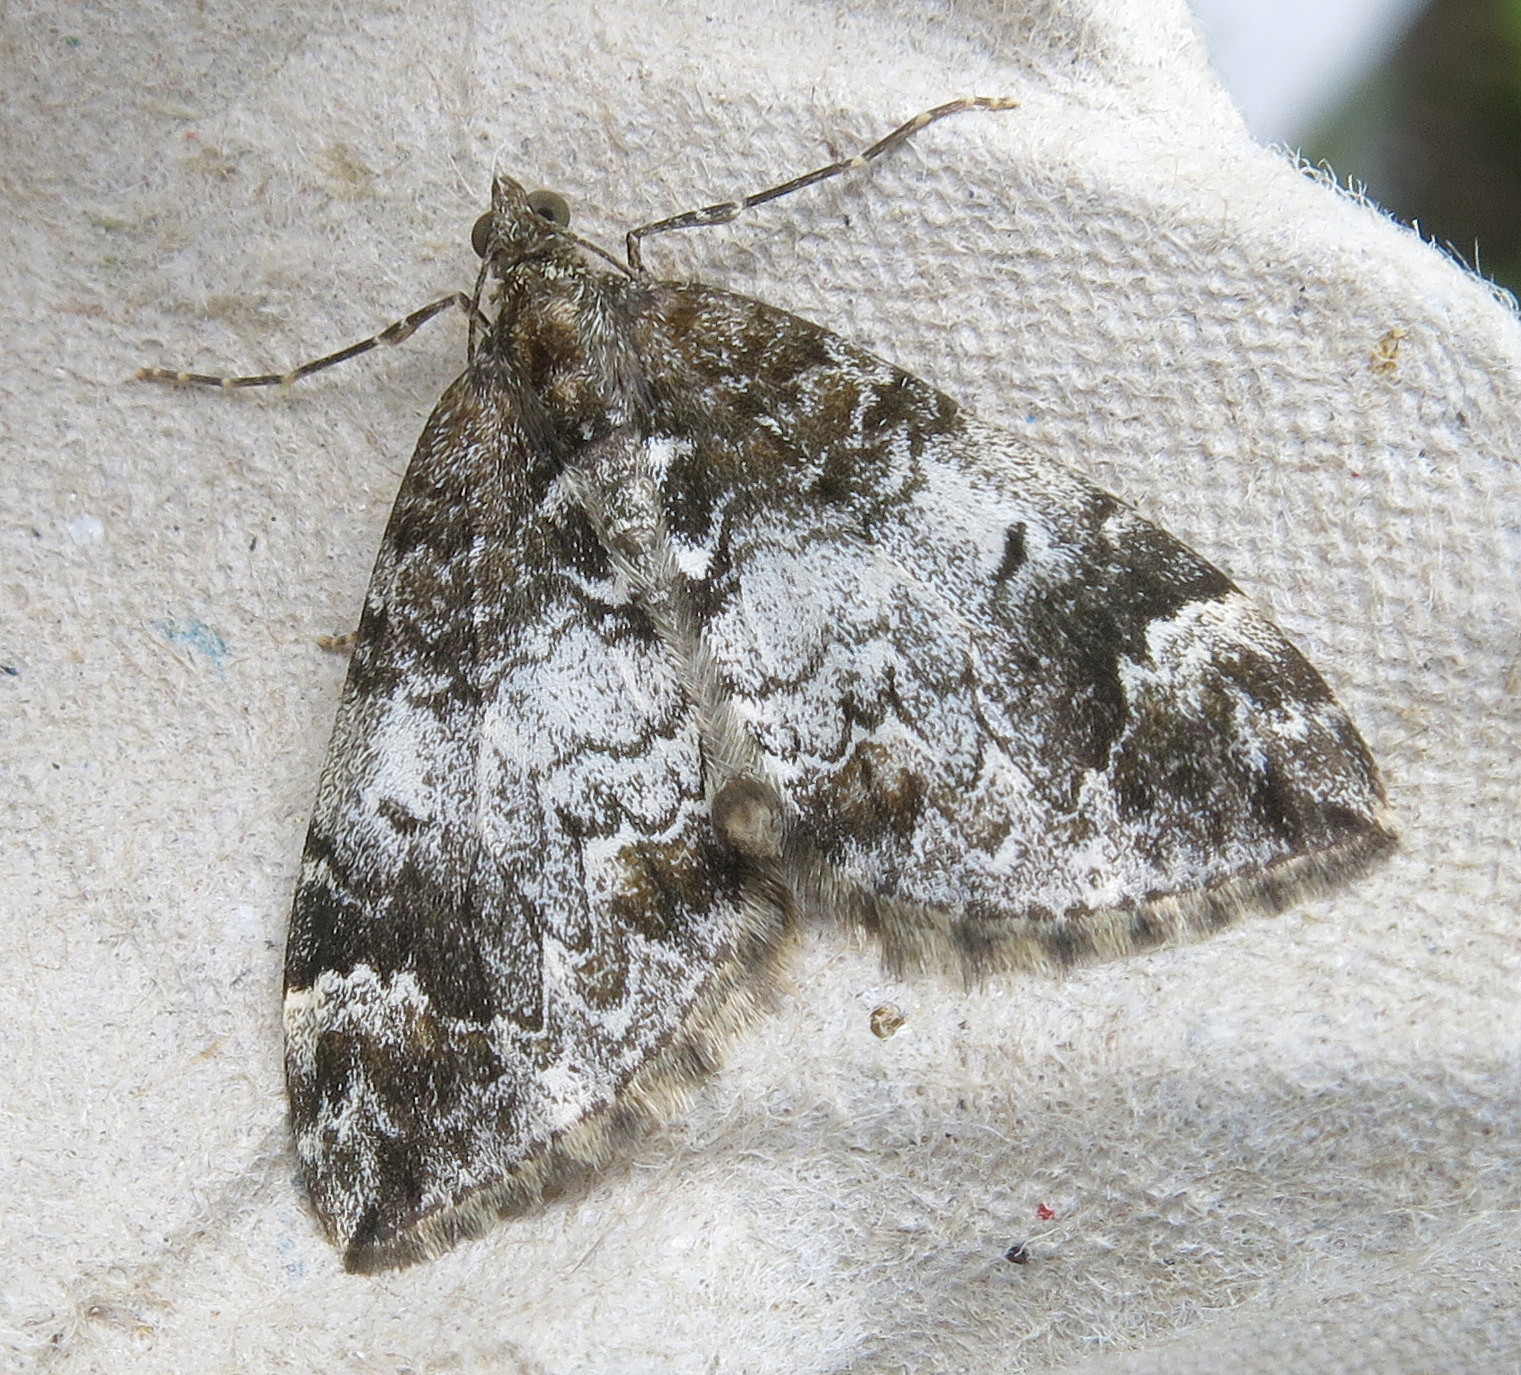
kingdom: Animalia
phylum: Arthropoda
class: Insecta
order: Lepidoptera
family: Geometridae
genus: Dysstroma
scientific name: Dysstroma truncata
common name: Common marbled carpet
